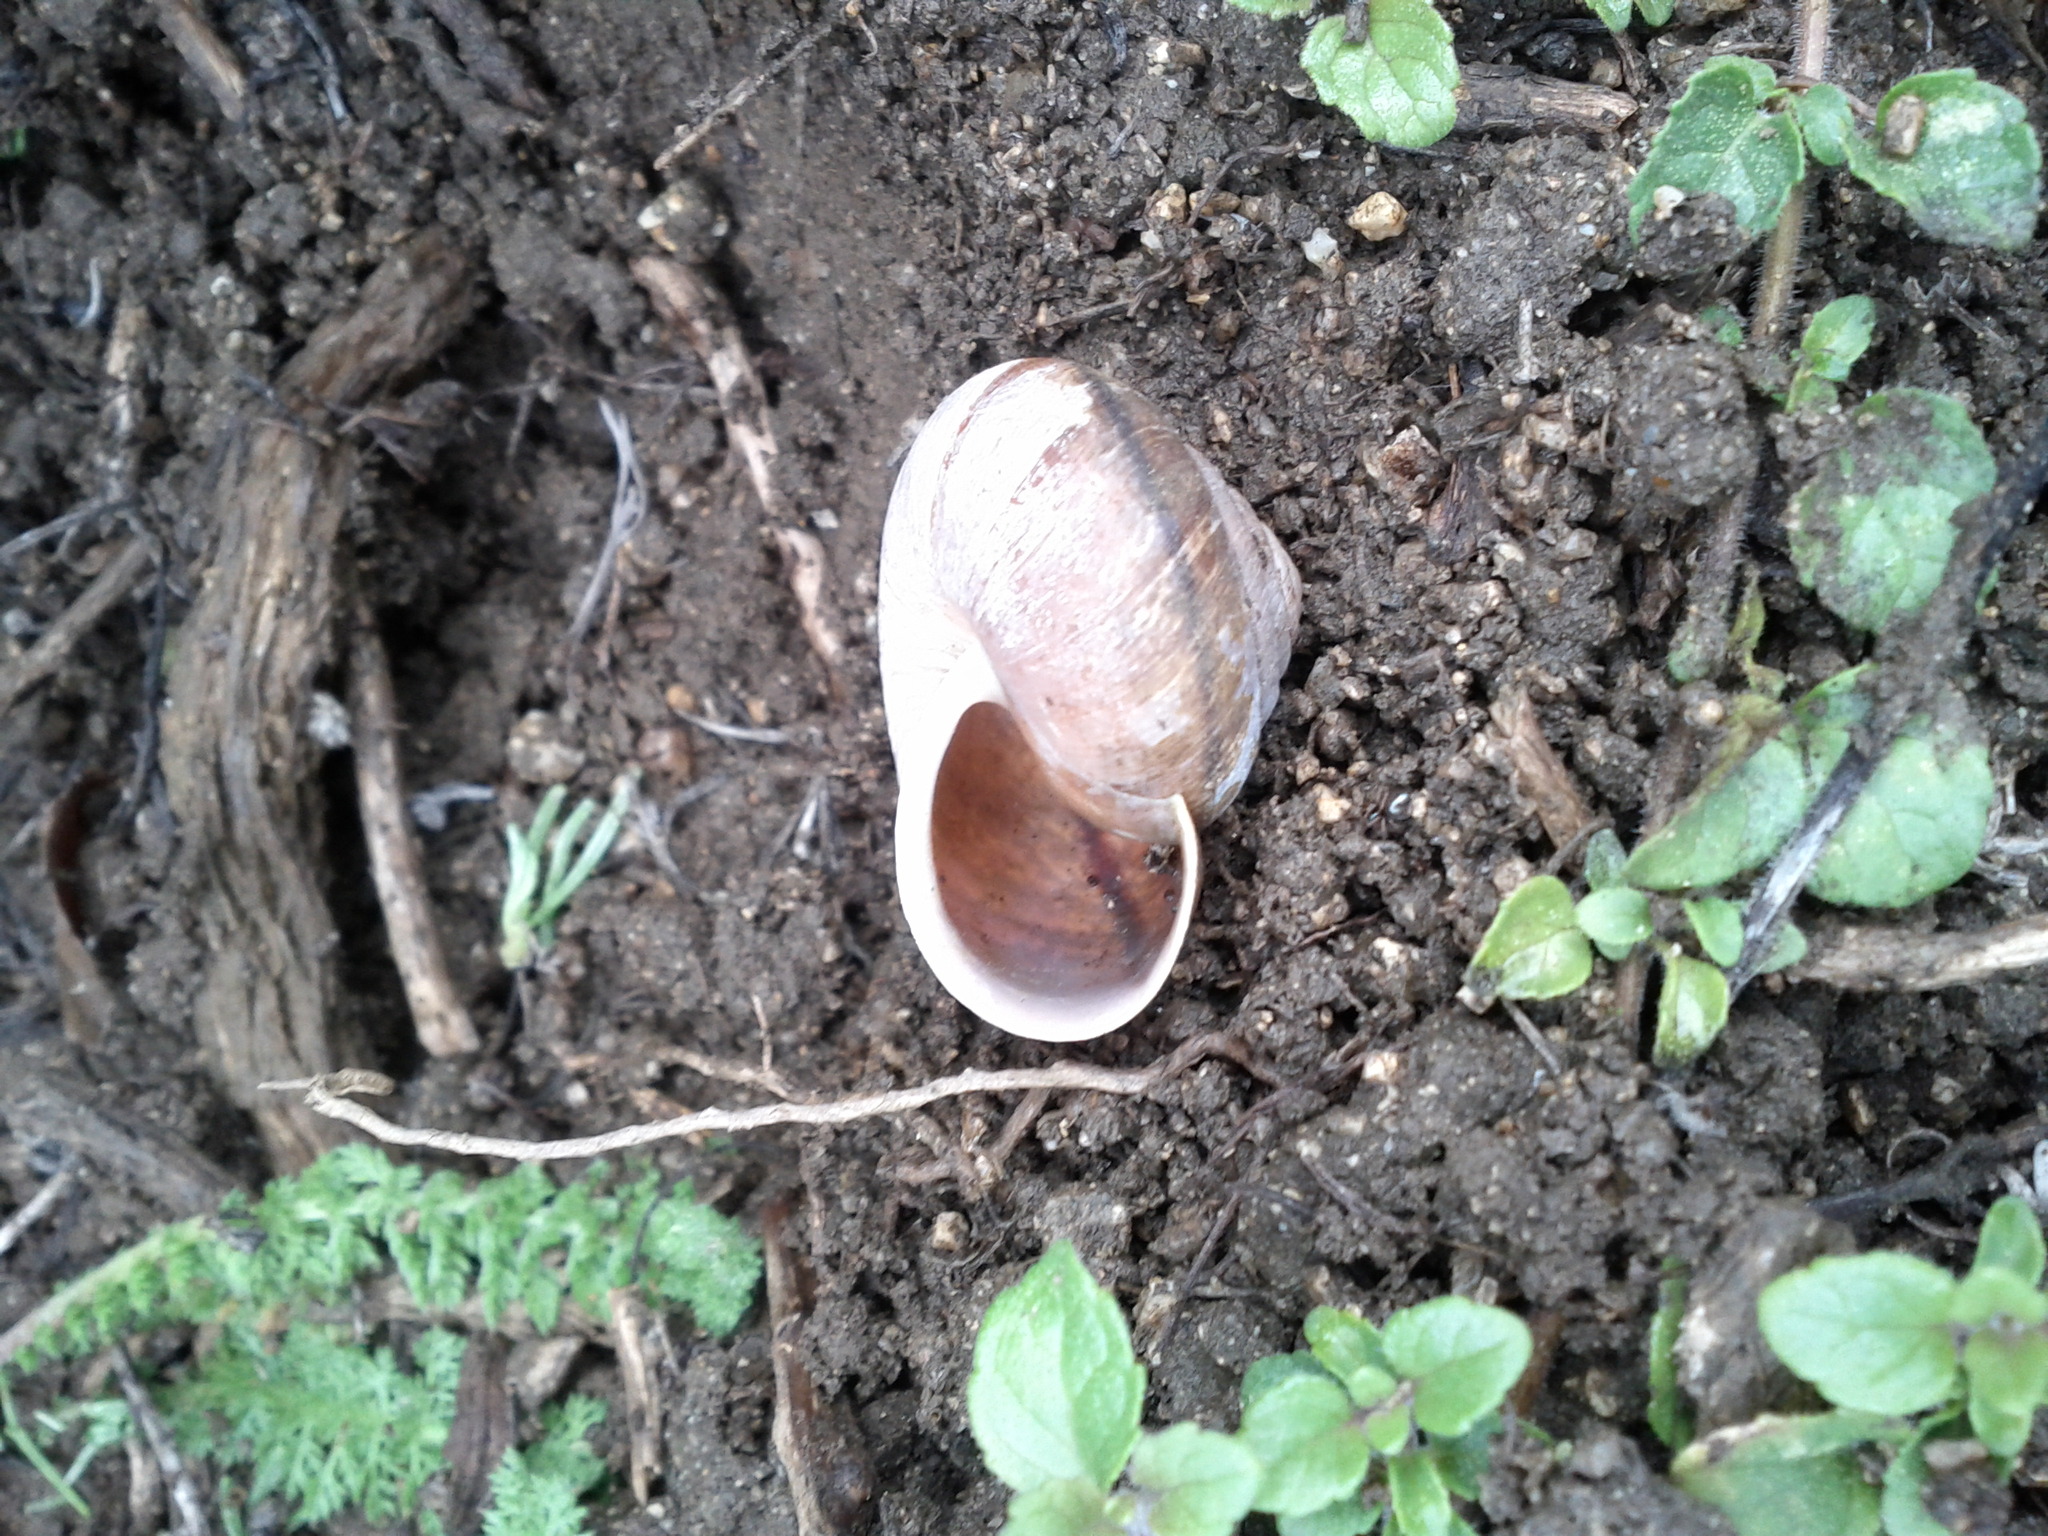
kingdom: Animalia
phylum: Mollusca
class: Gastropoda
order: Stylommatophora
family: Xanthonychidae
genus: Helminthoglypta
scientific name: Helminthoglypta arrosa
